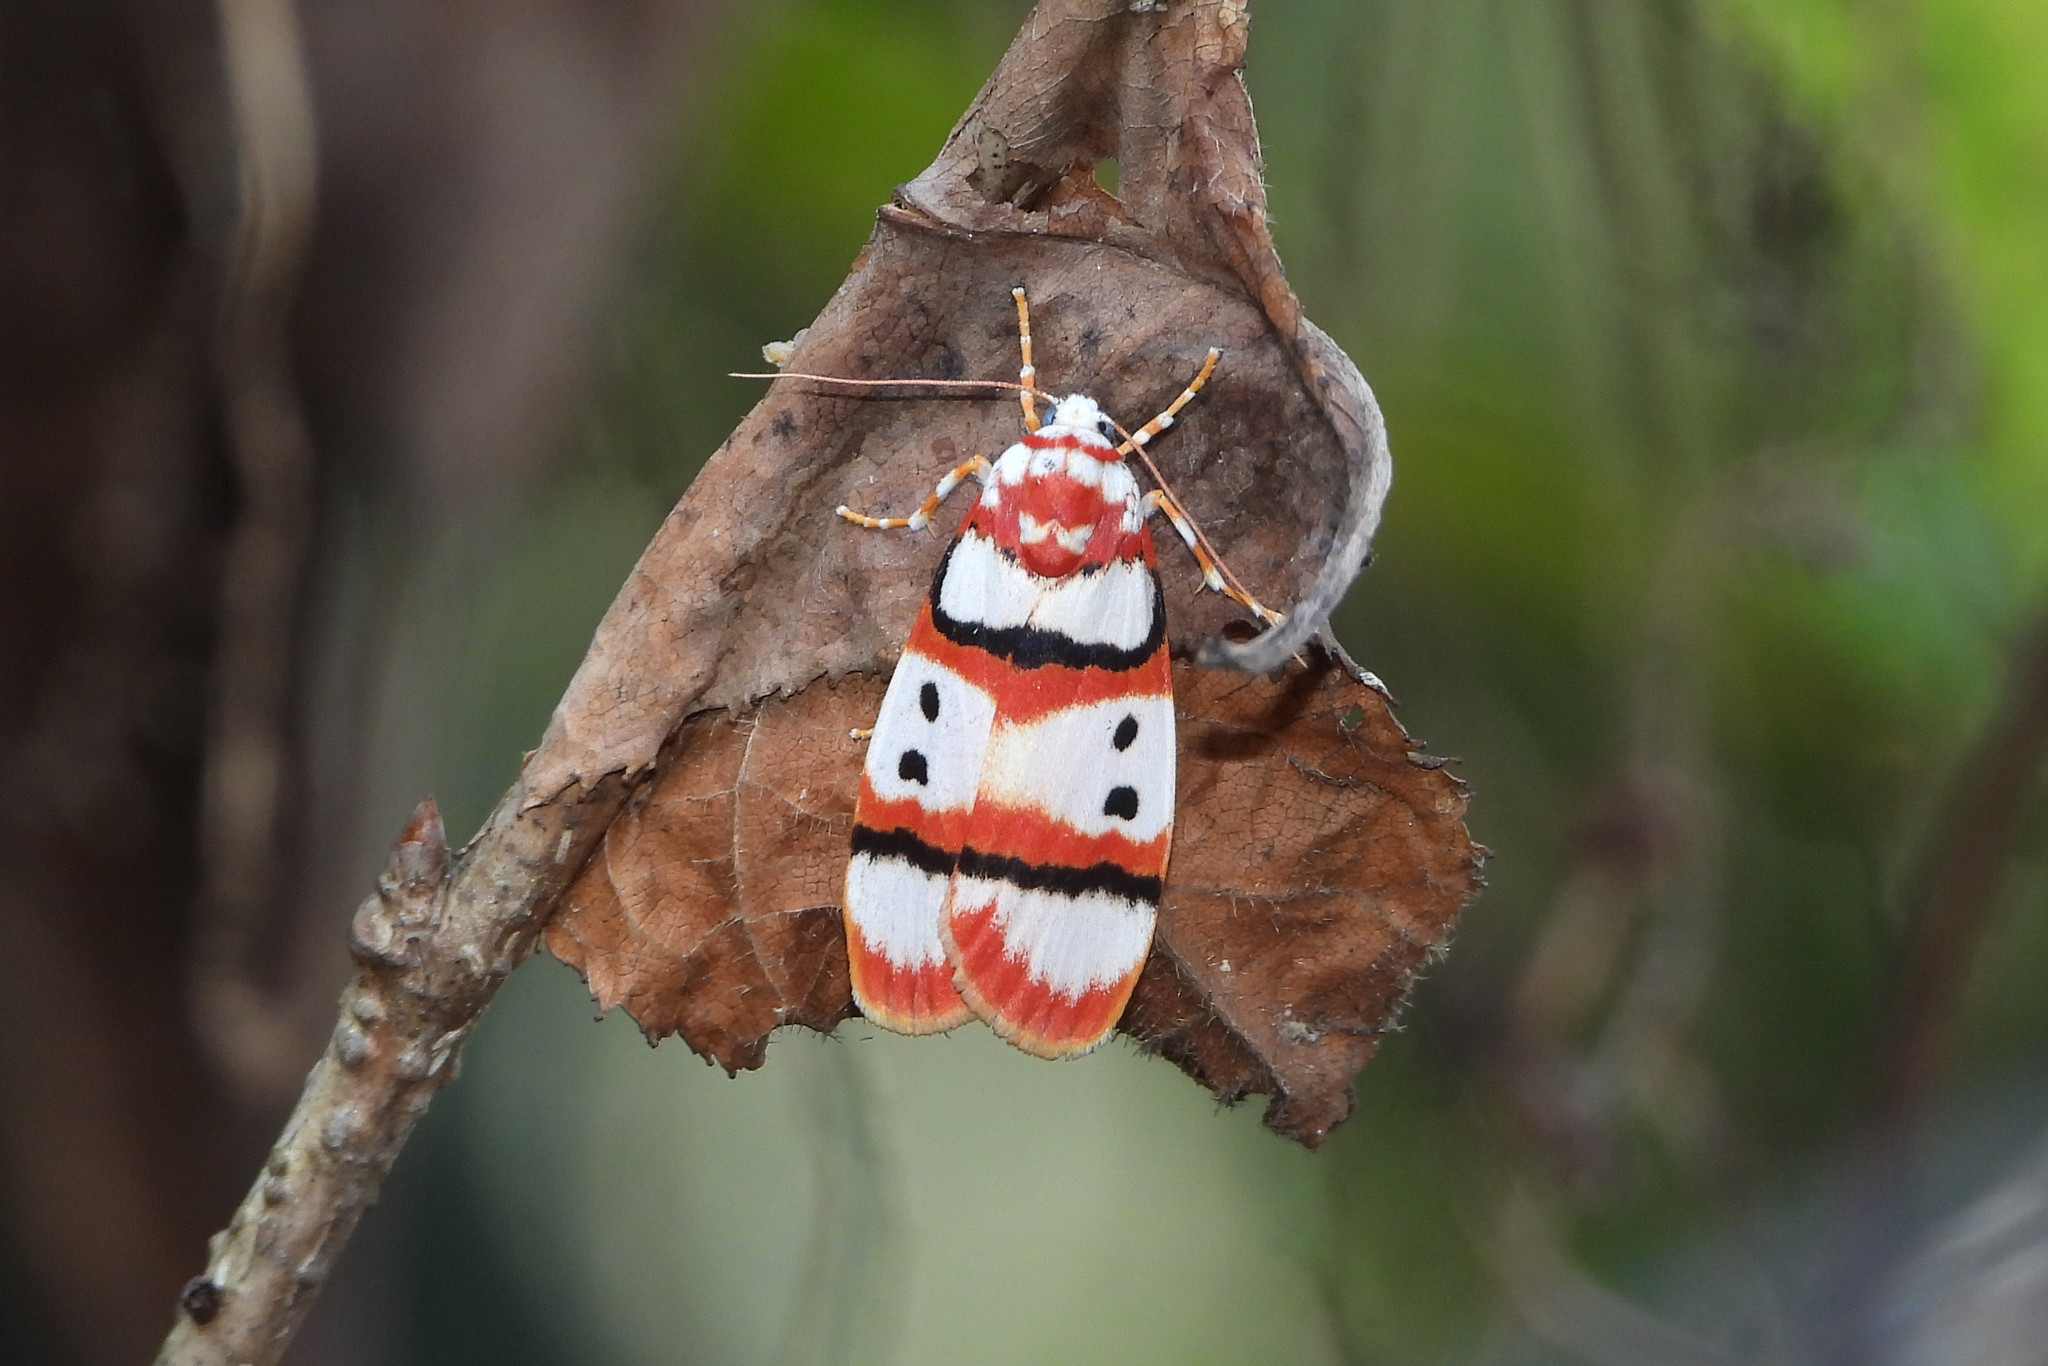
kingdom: Animalia
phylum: Arthropoda
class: Insecta
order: Lepidoptera
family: Erebidae
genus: Cyana
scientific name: Cyana coccinea
